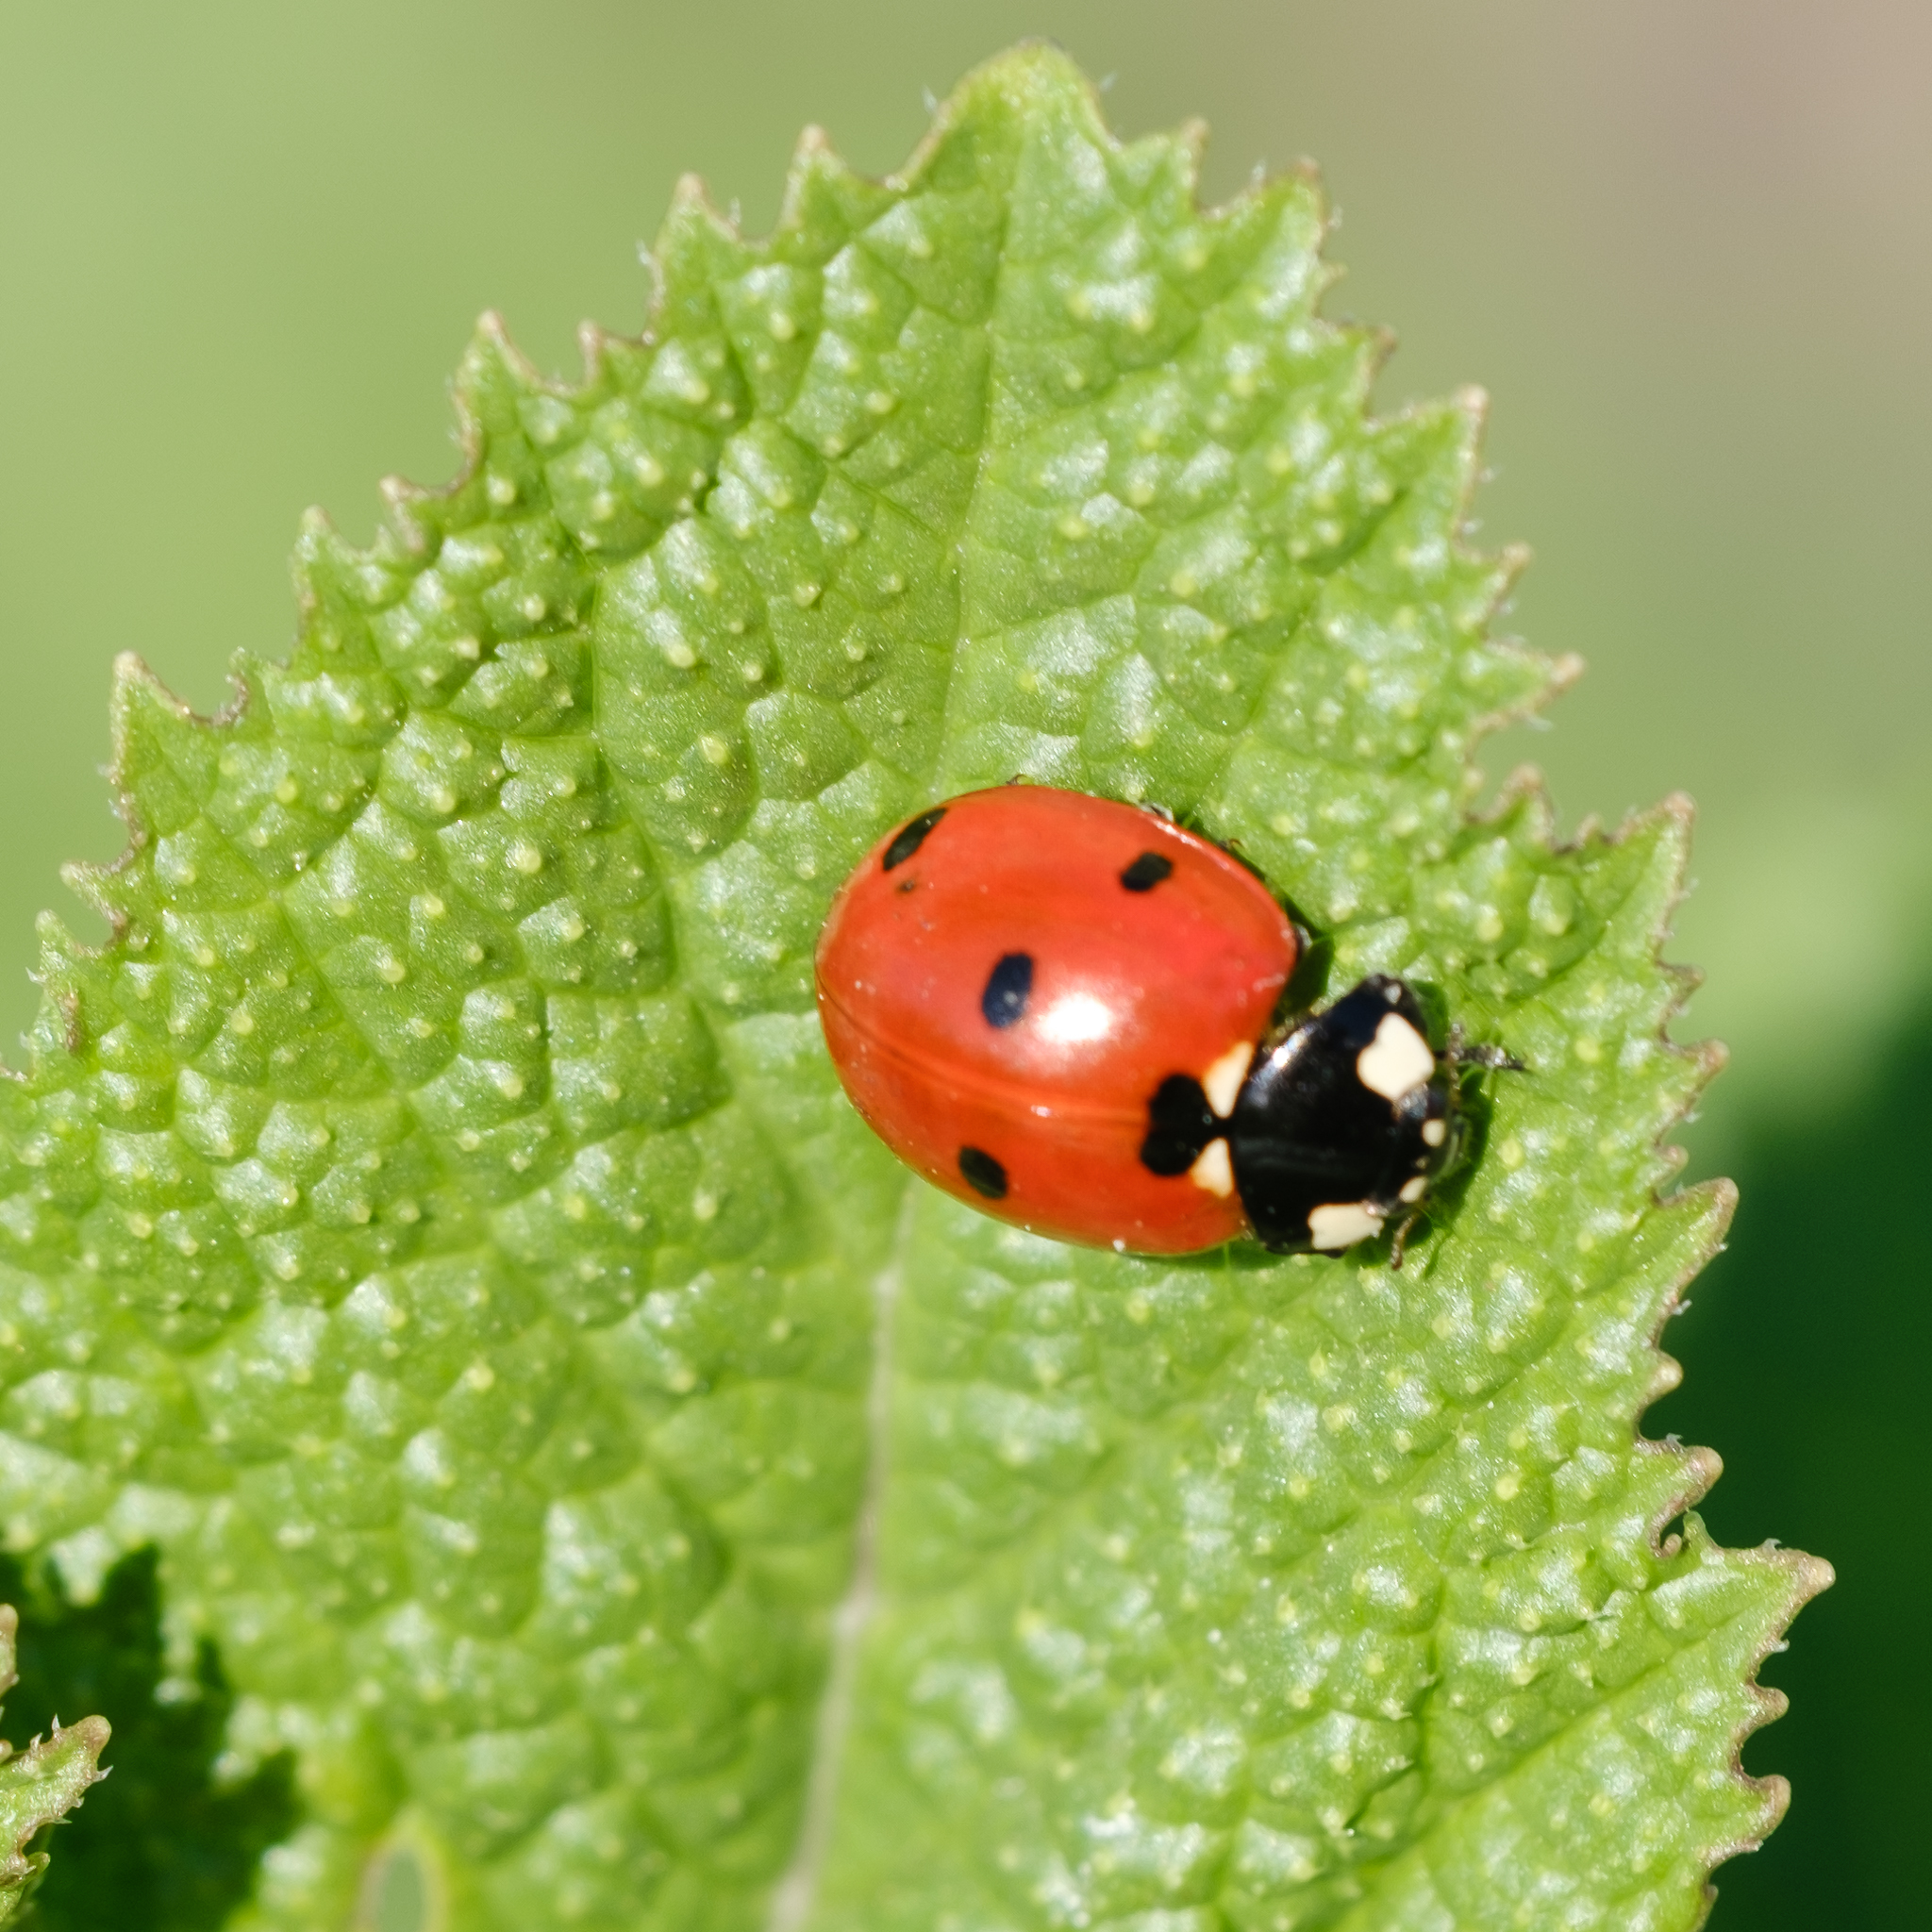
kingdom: Animalia
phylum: Arthropoda
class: Insecta
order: Coleoptera
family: Coccinellidae
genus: Coccinella
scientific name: Coccinella septempunctata
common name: Sevenspotted lady beetle
